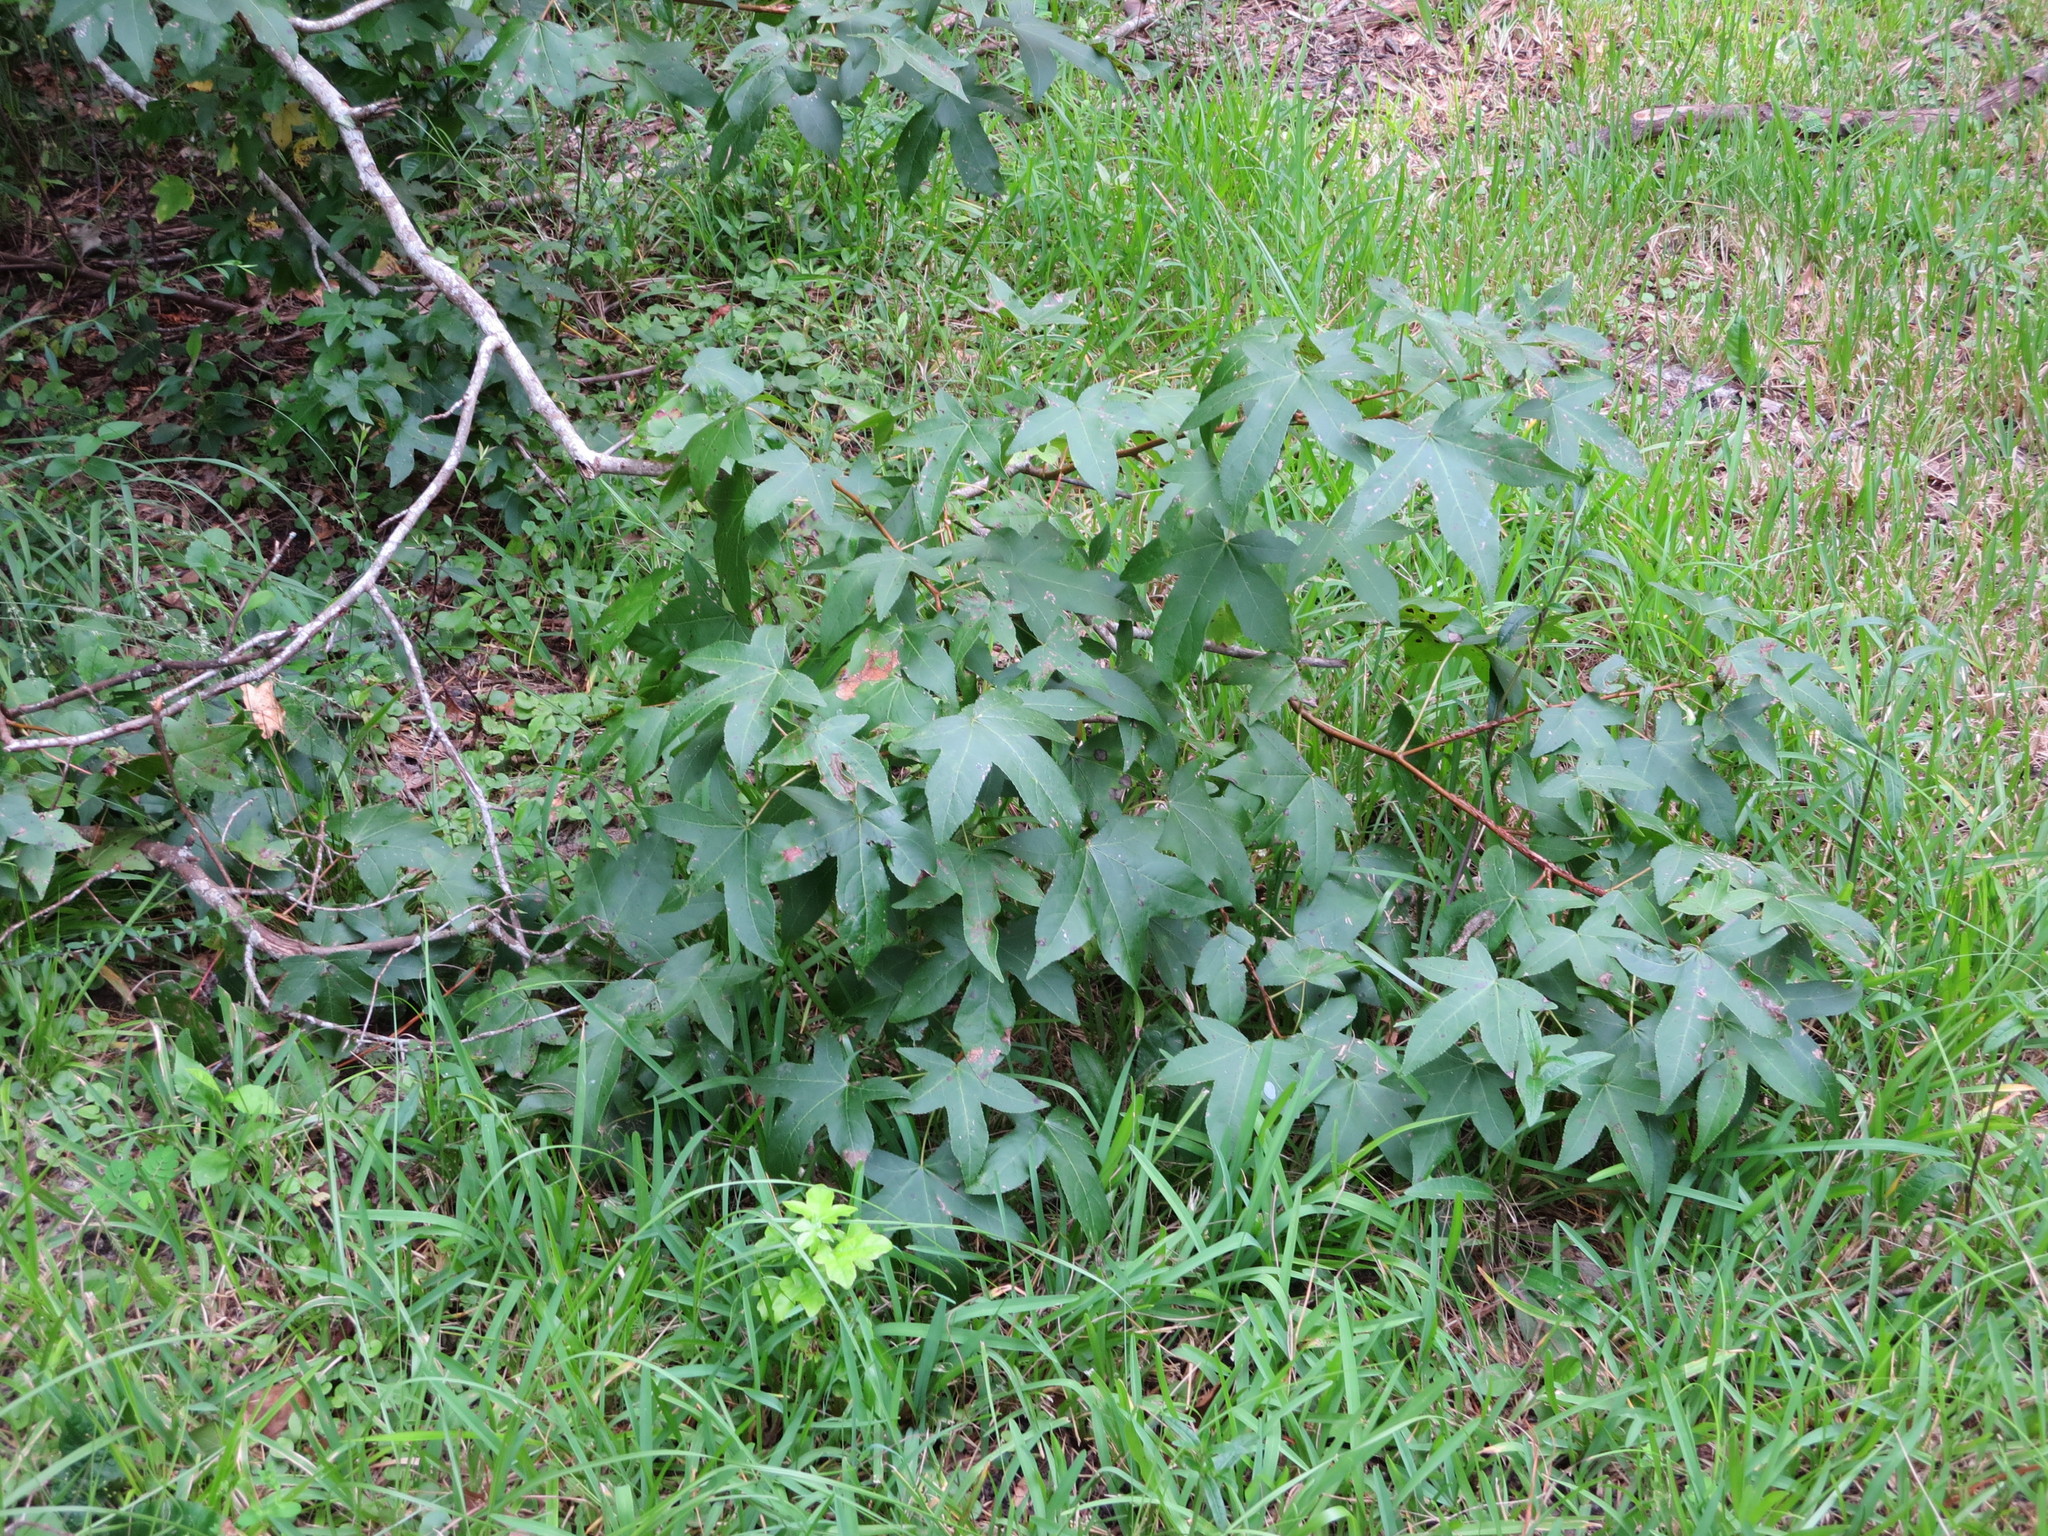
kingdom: Plantae
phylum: Tracheophyta
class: Magnoliopsida
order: Saxifragales
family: Altingiaceae
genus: Liquidambar
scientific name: Liquidambar styraciflua
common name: Sweet gum
